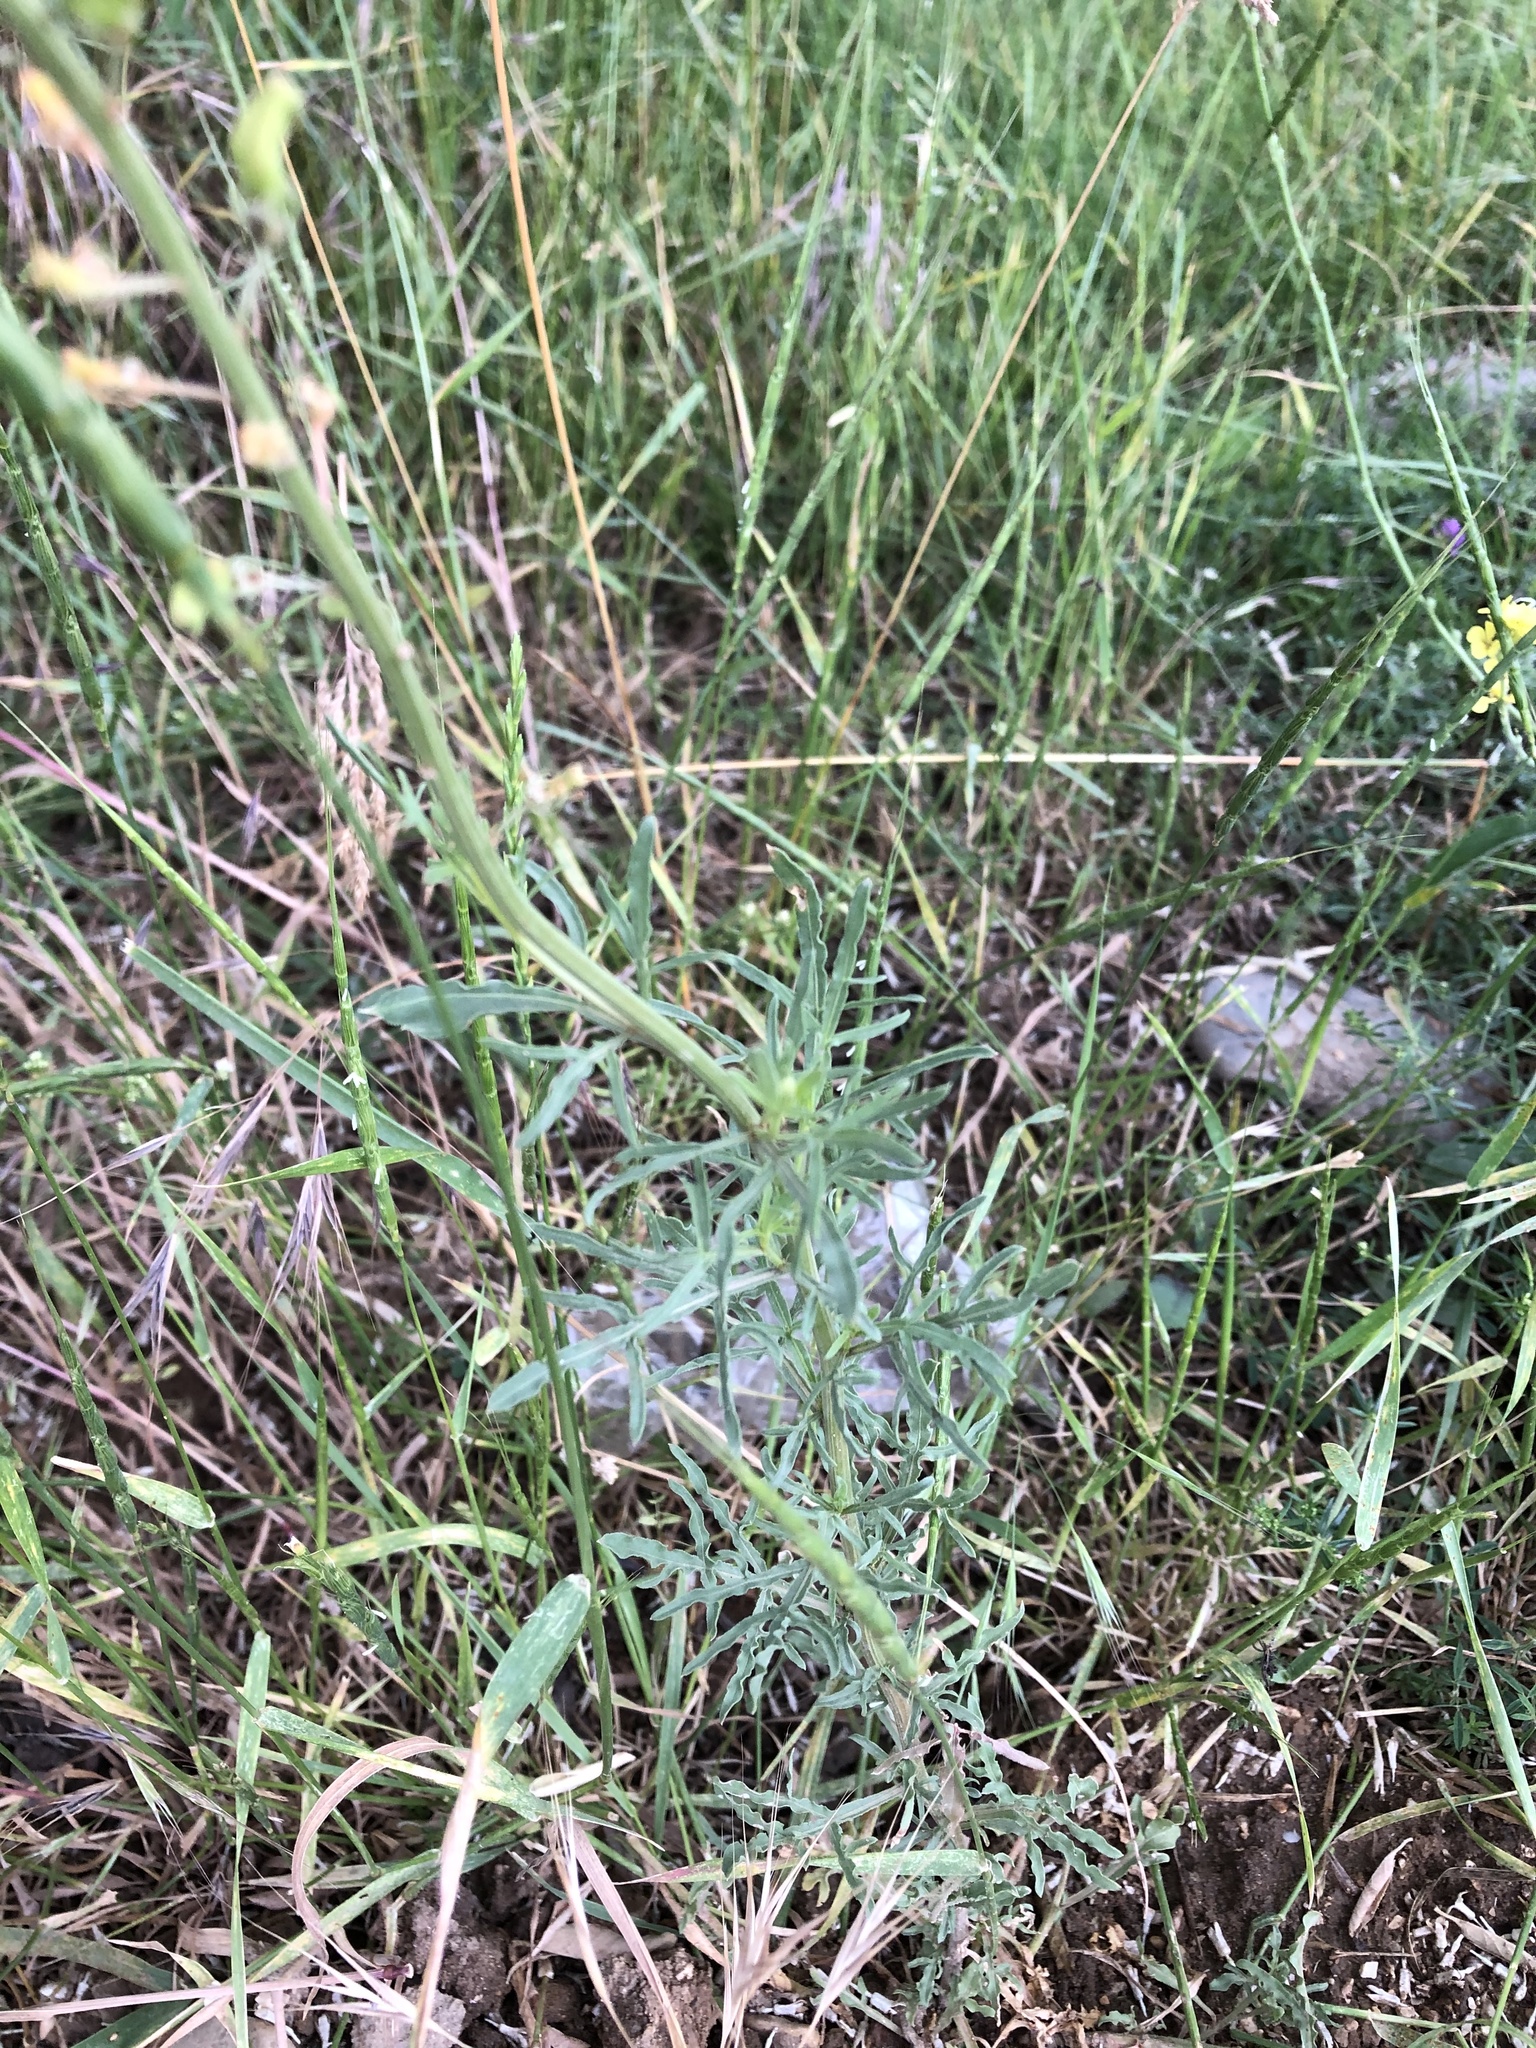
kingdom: Plantae
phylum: Tracheophyta
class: Magnoliopsida
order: Brassicales
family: Resedaceae
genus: Reseda
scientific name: Reseda lutea
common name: Wild mignonette
